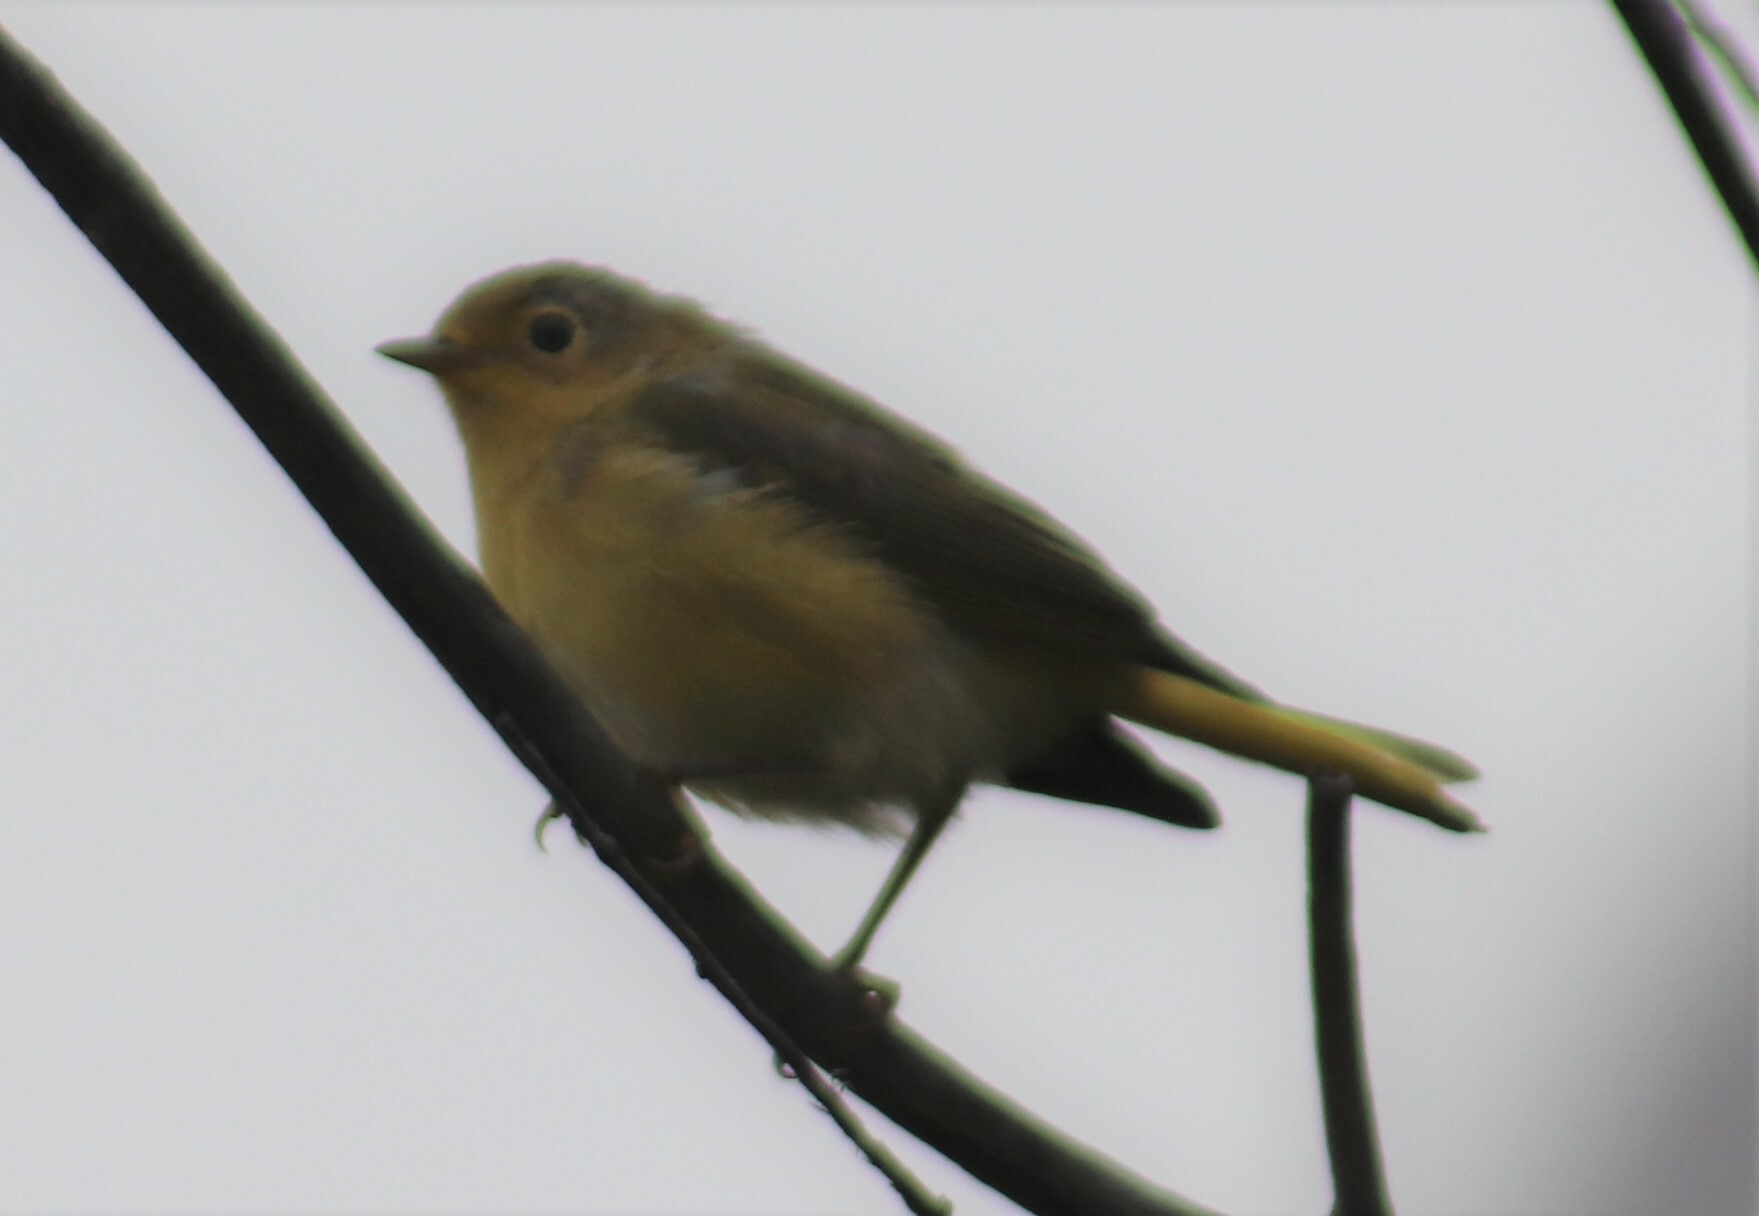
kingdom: Animalia
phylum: Chordata
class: Aves
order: Passeriformes
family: Parulidae
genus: Setophaga
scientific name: Setophaga petechia
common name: Yellow warbler
